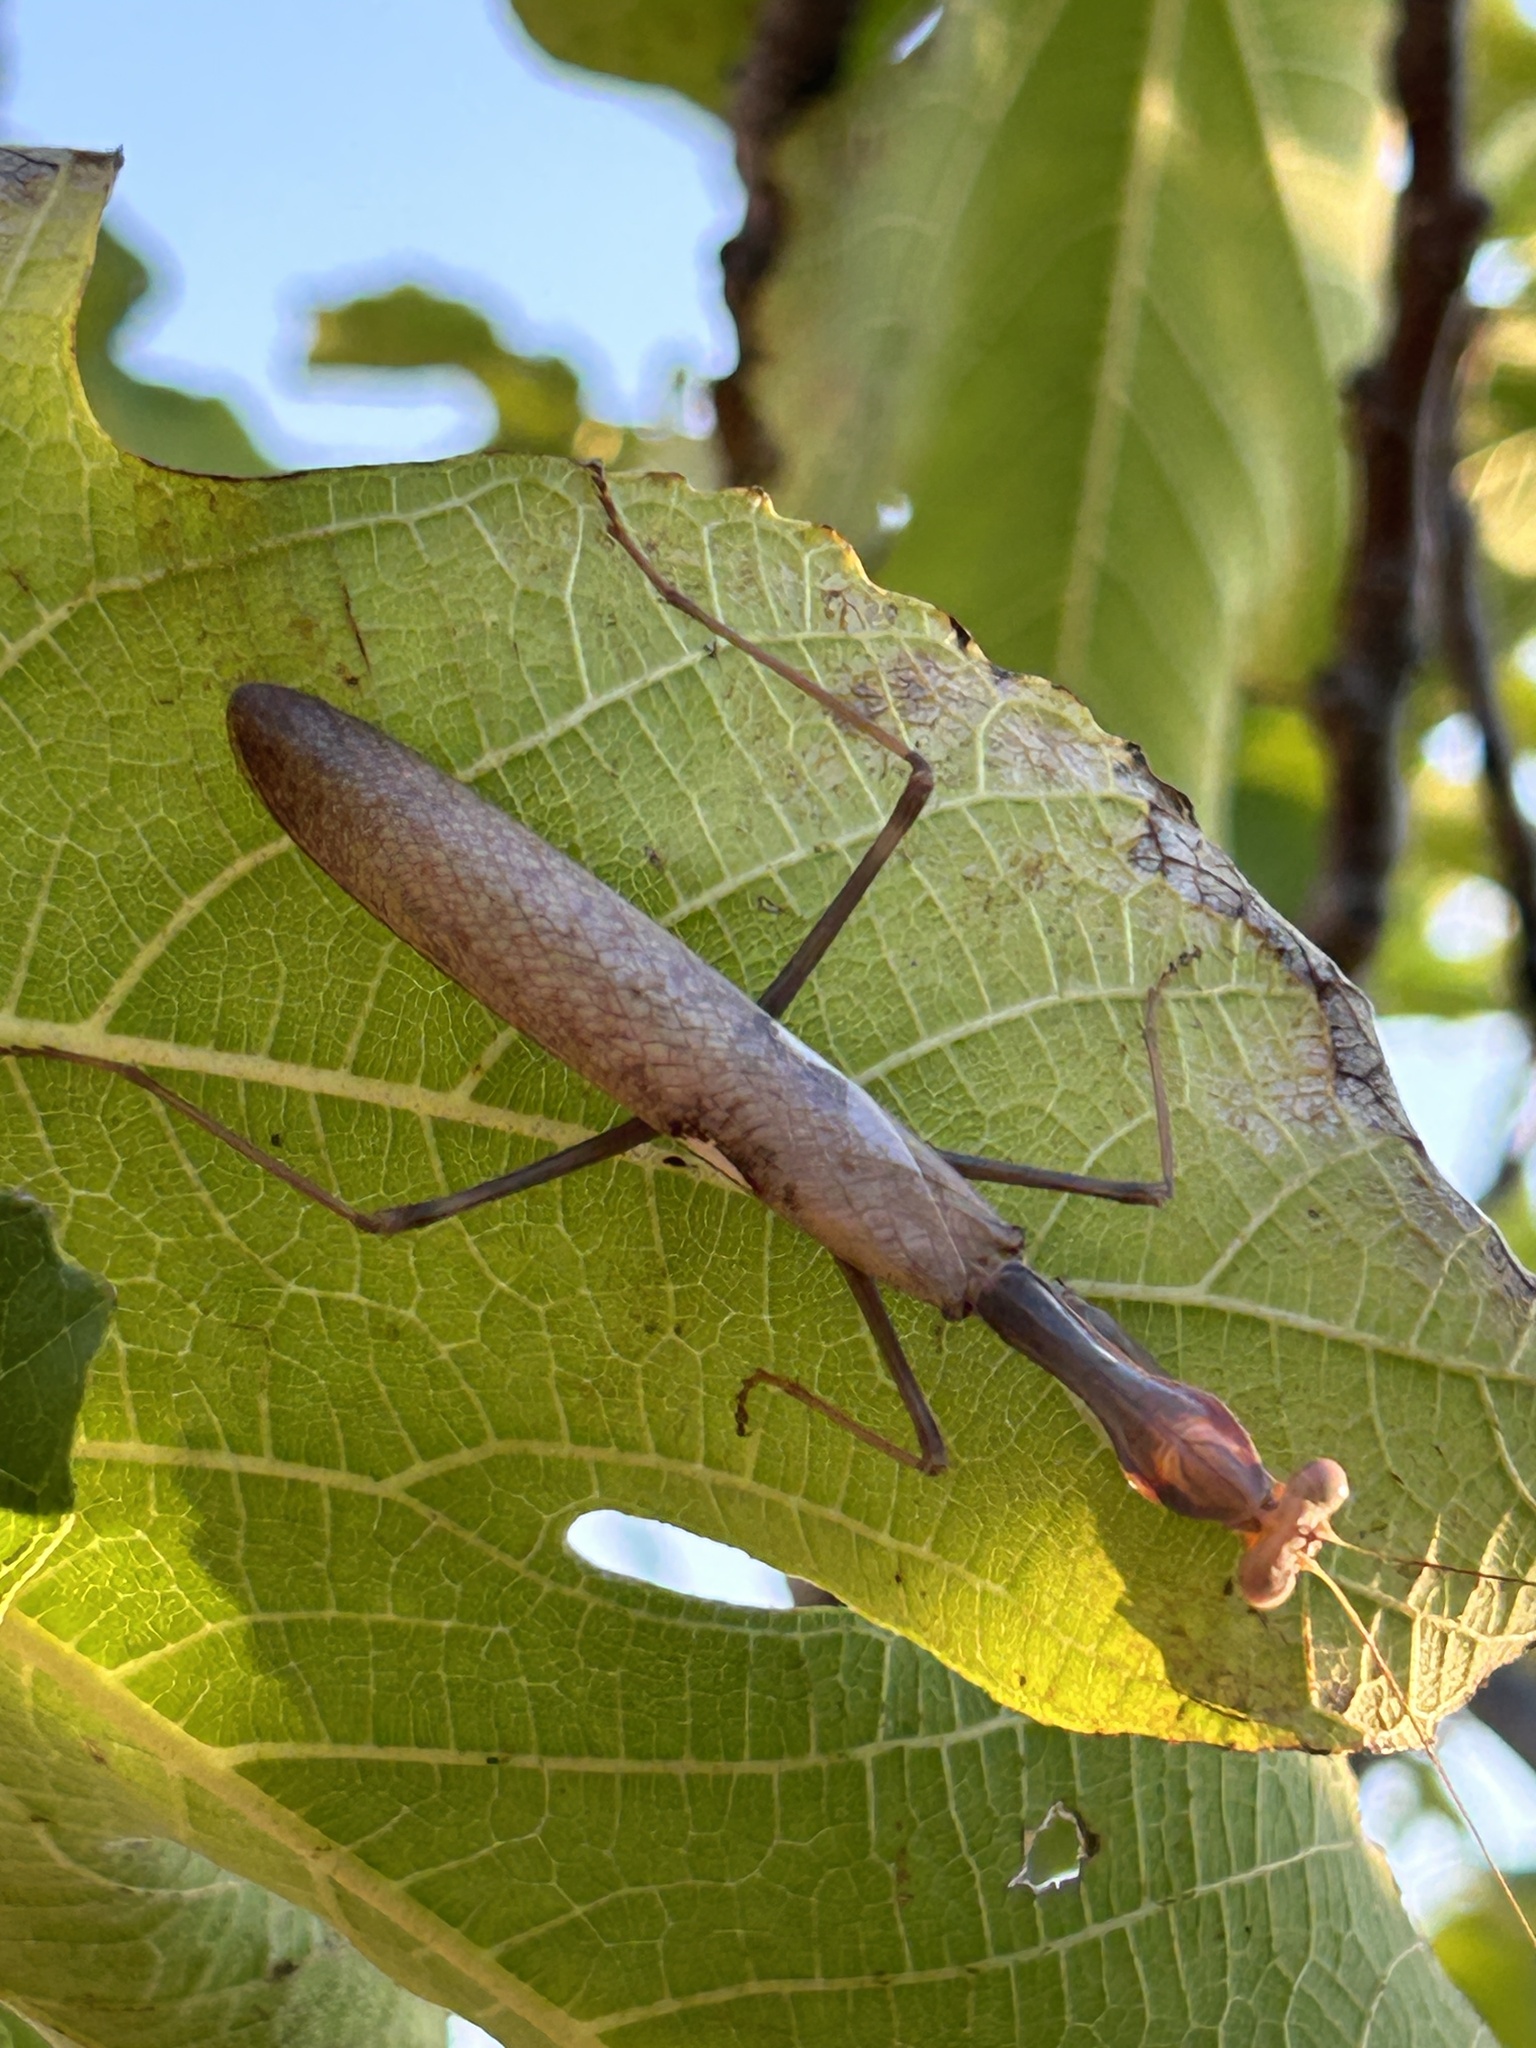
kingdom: Animalia
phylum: Arthropoda
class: Insecta
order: Mantodea
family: Mantidae
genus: Sphodromantis
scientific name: Sphodromantis viridis
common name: Giant african mantis
